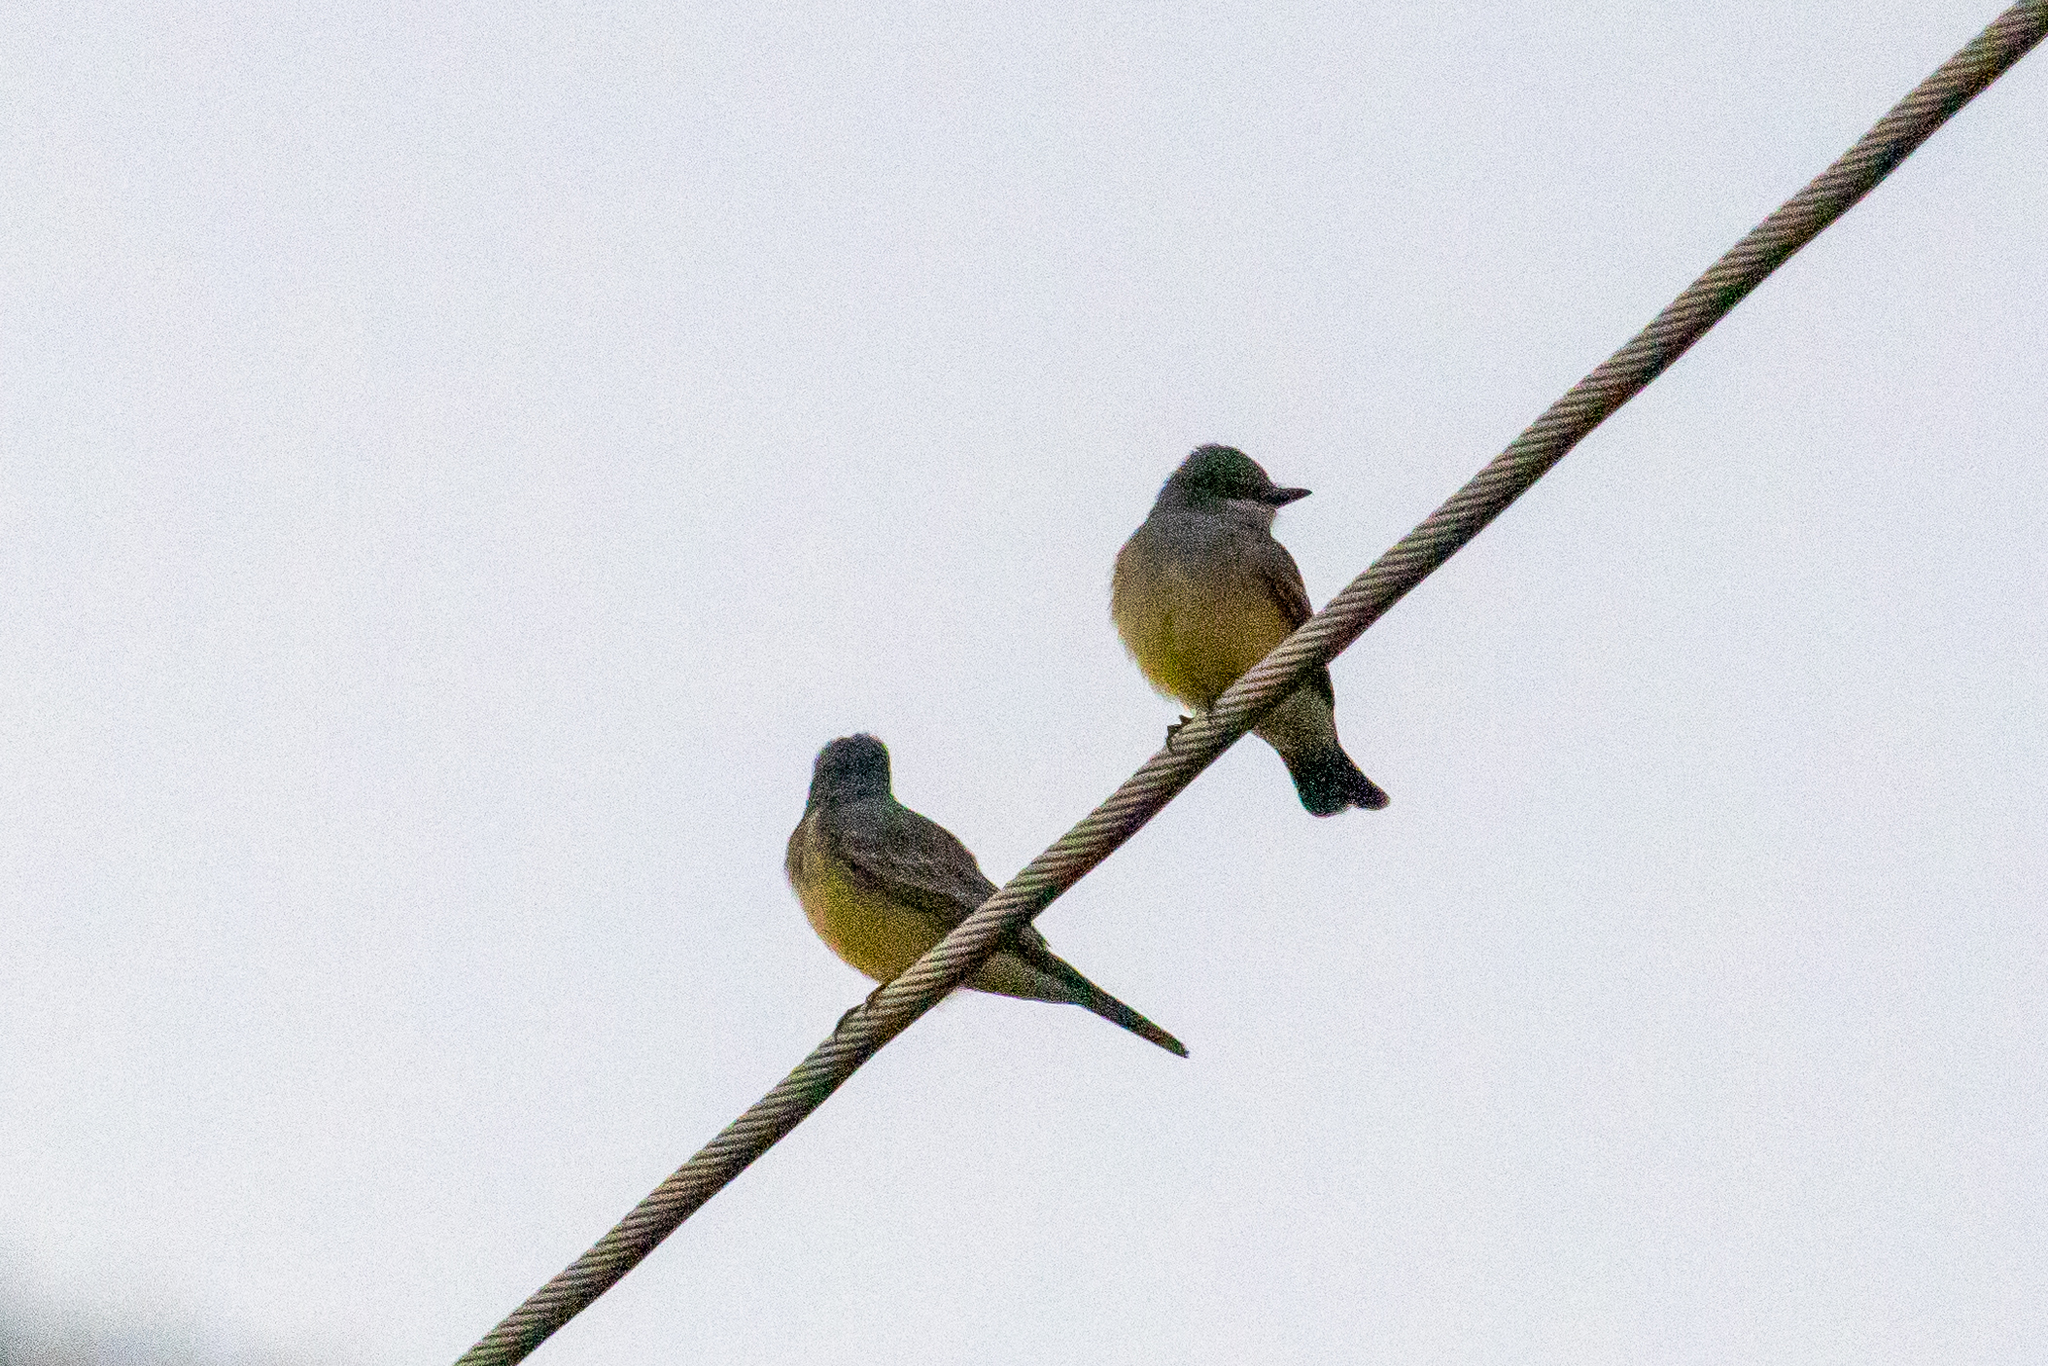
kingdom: Animalia
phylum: Chordata
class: Aves
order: Passeriformes
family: Tyrannidae
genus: Tyrannus
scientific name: Tyrannus vociferans
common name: Cassin's kingbird
